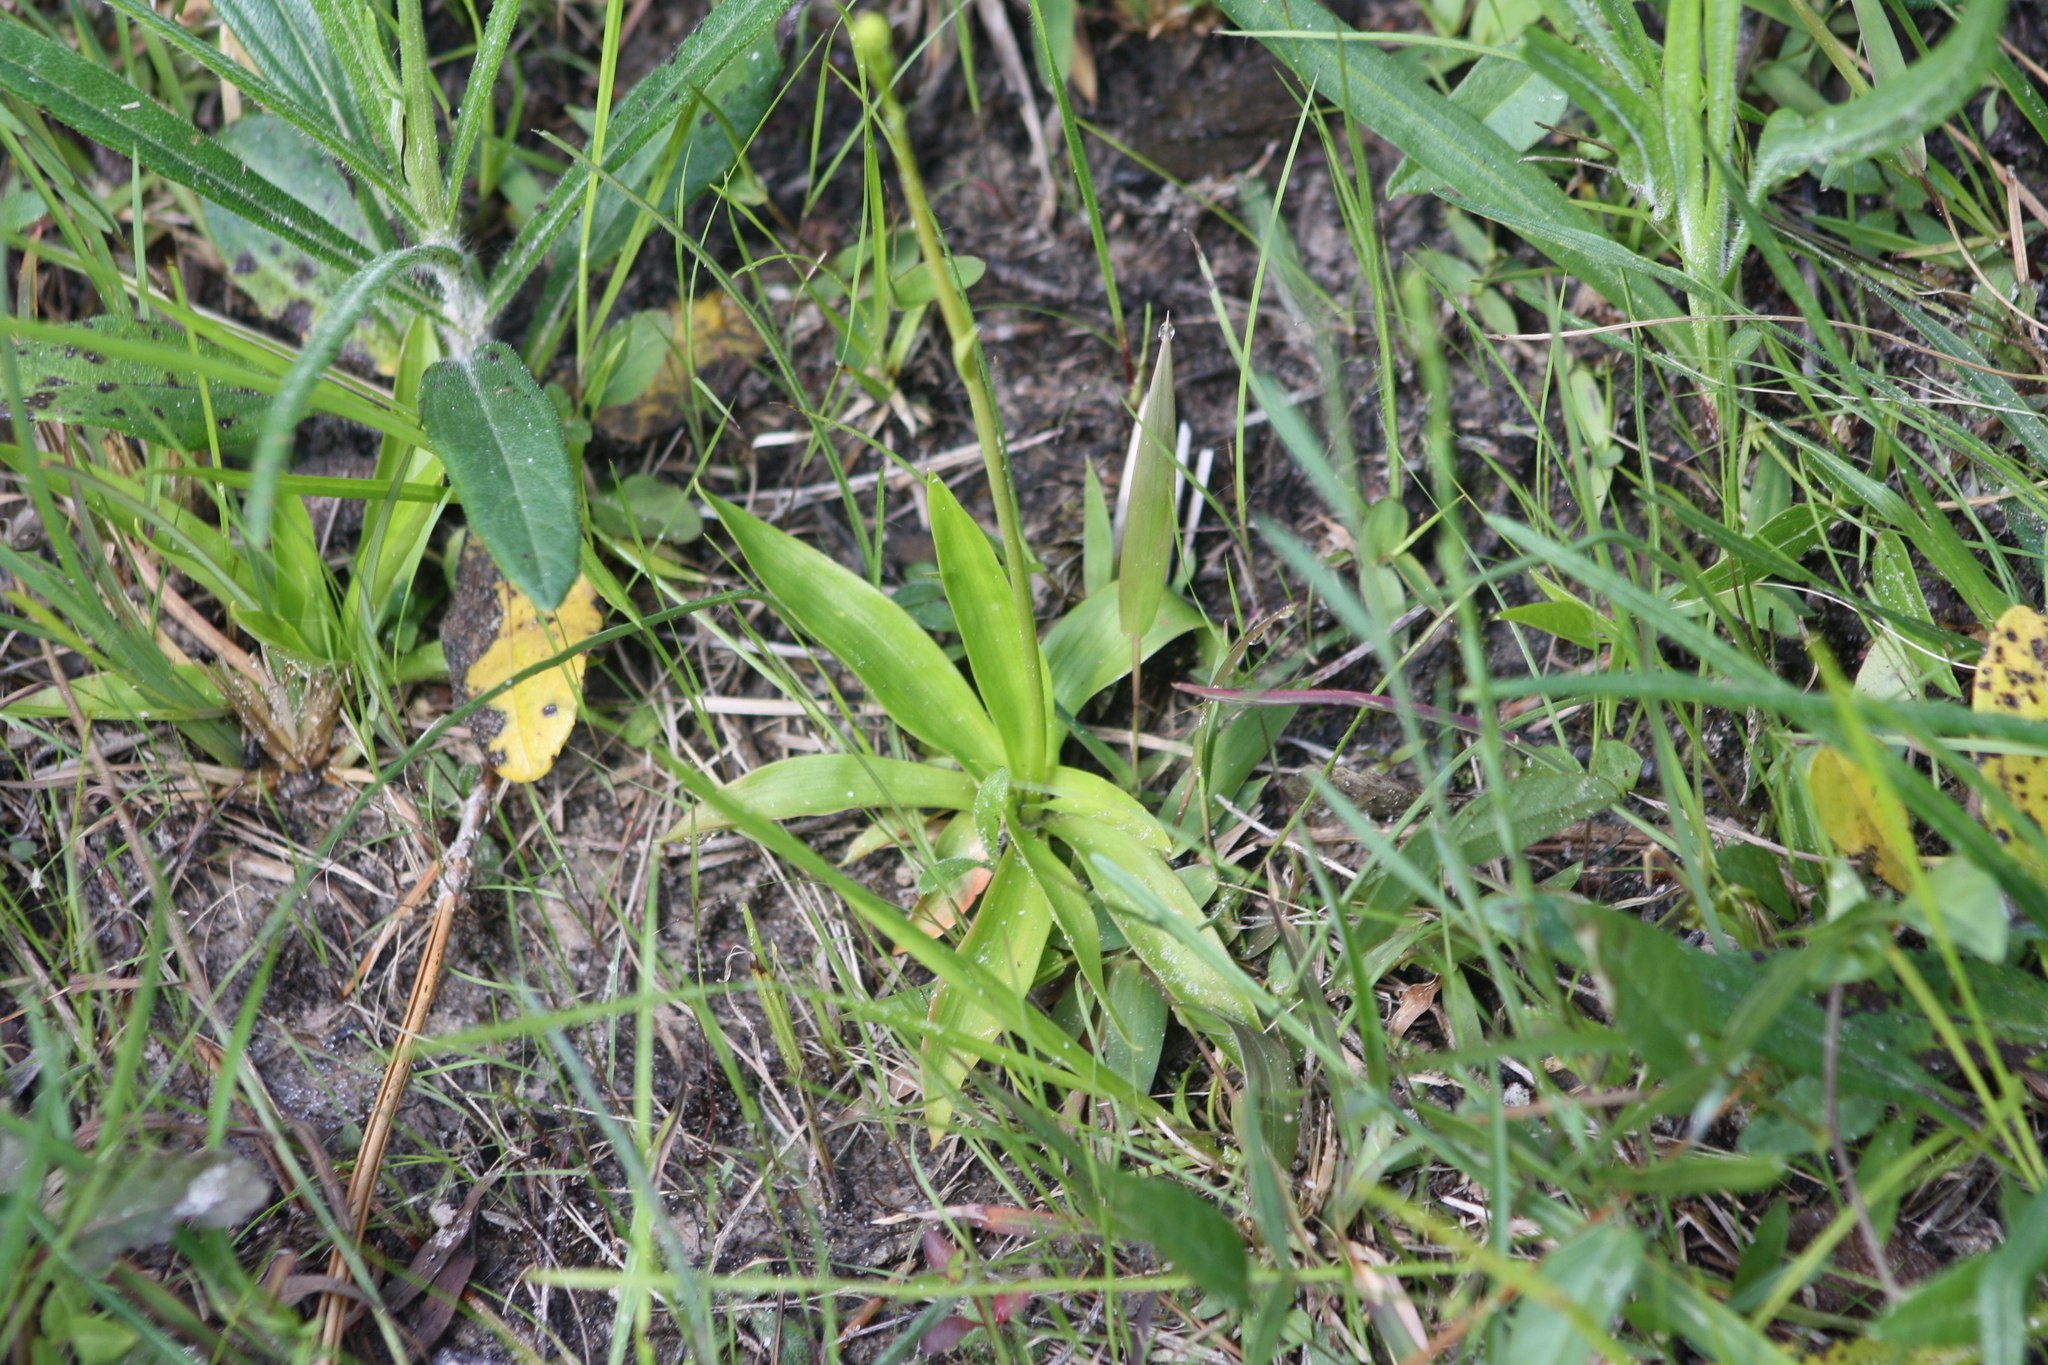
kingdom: Plantae
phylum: Tracheophyta
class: Liliopsida
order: Dioscoreales
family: Nartheciaceae
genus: Aletris
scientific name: Aletris aurea
